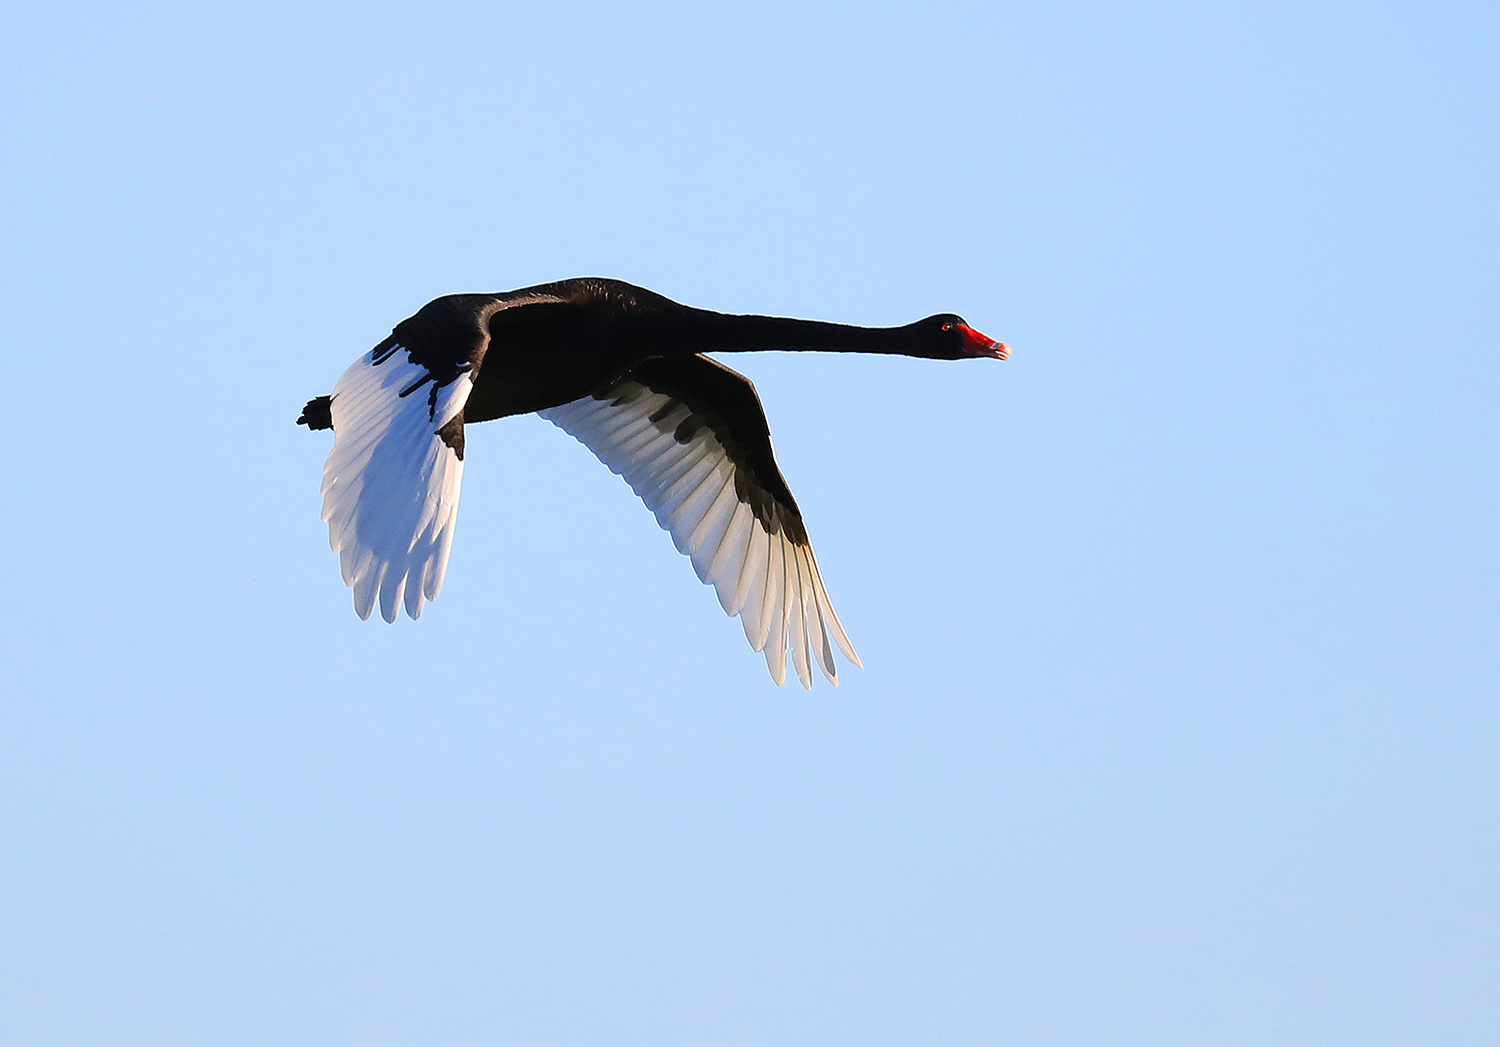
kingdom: Animalia
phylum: Chordata
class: Aves
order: Anseriformes
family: Anatidae
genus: Cygnus
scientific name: Cygnus atratus
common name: Black swan
